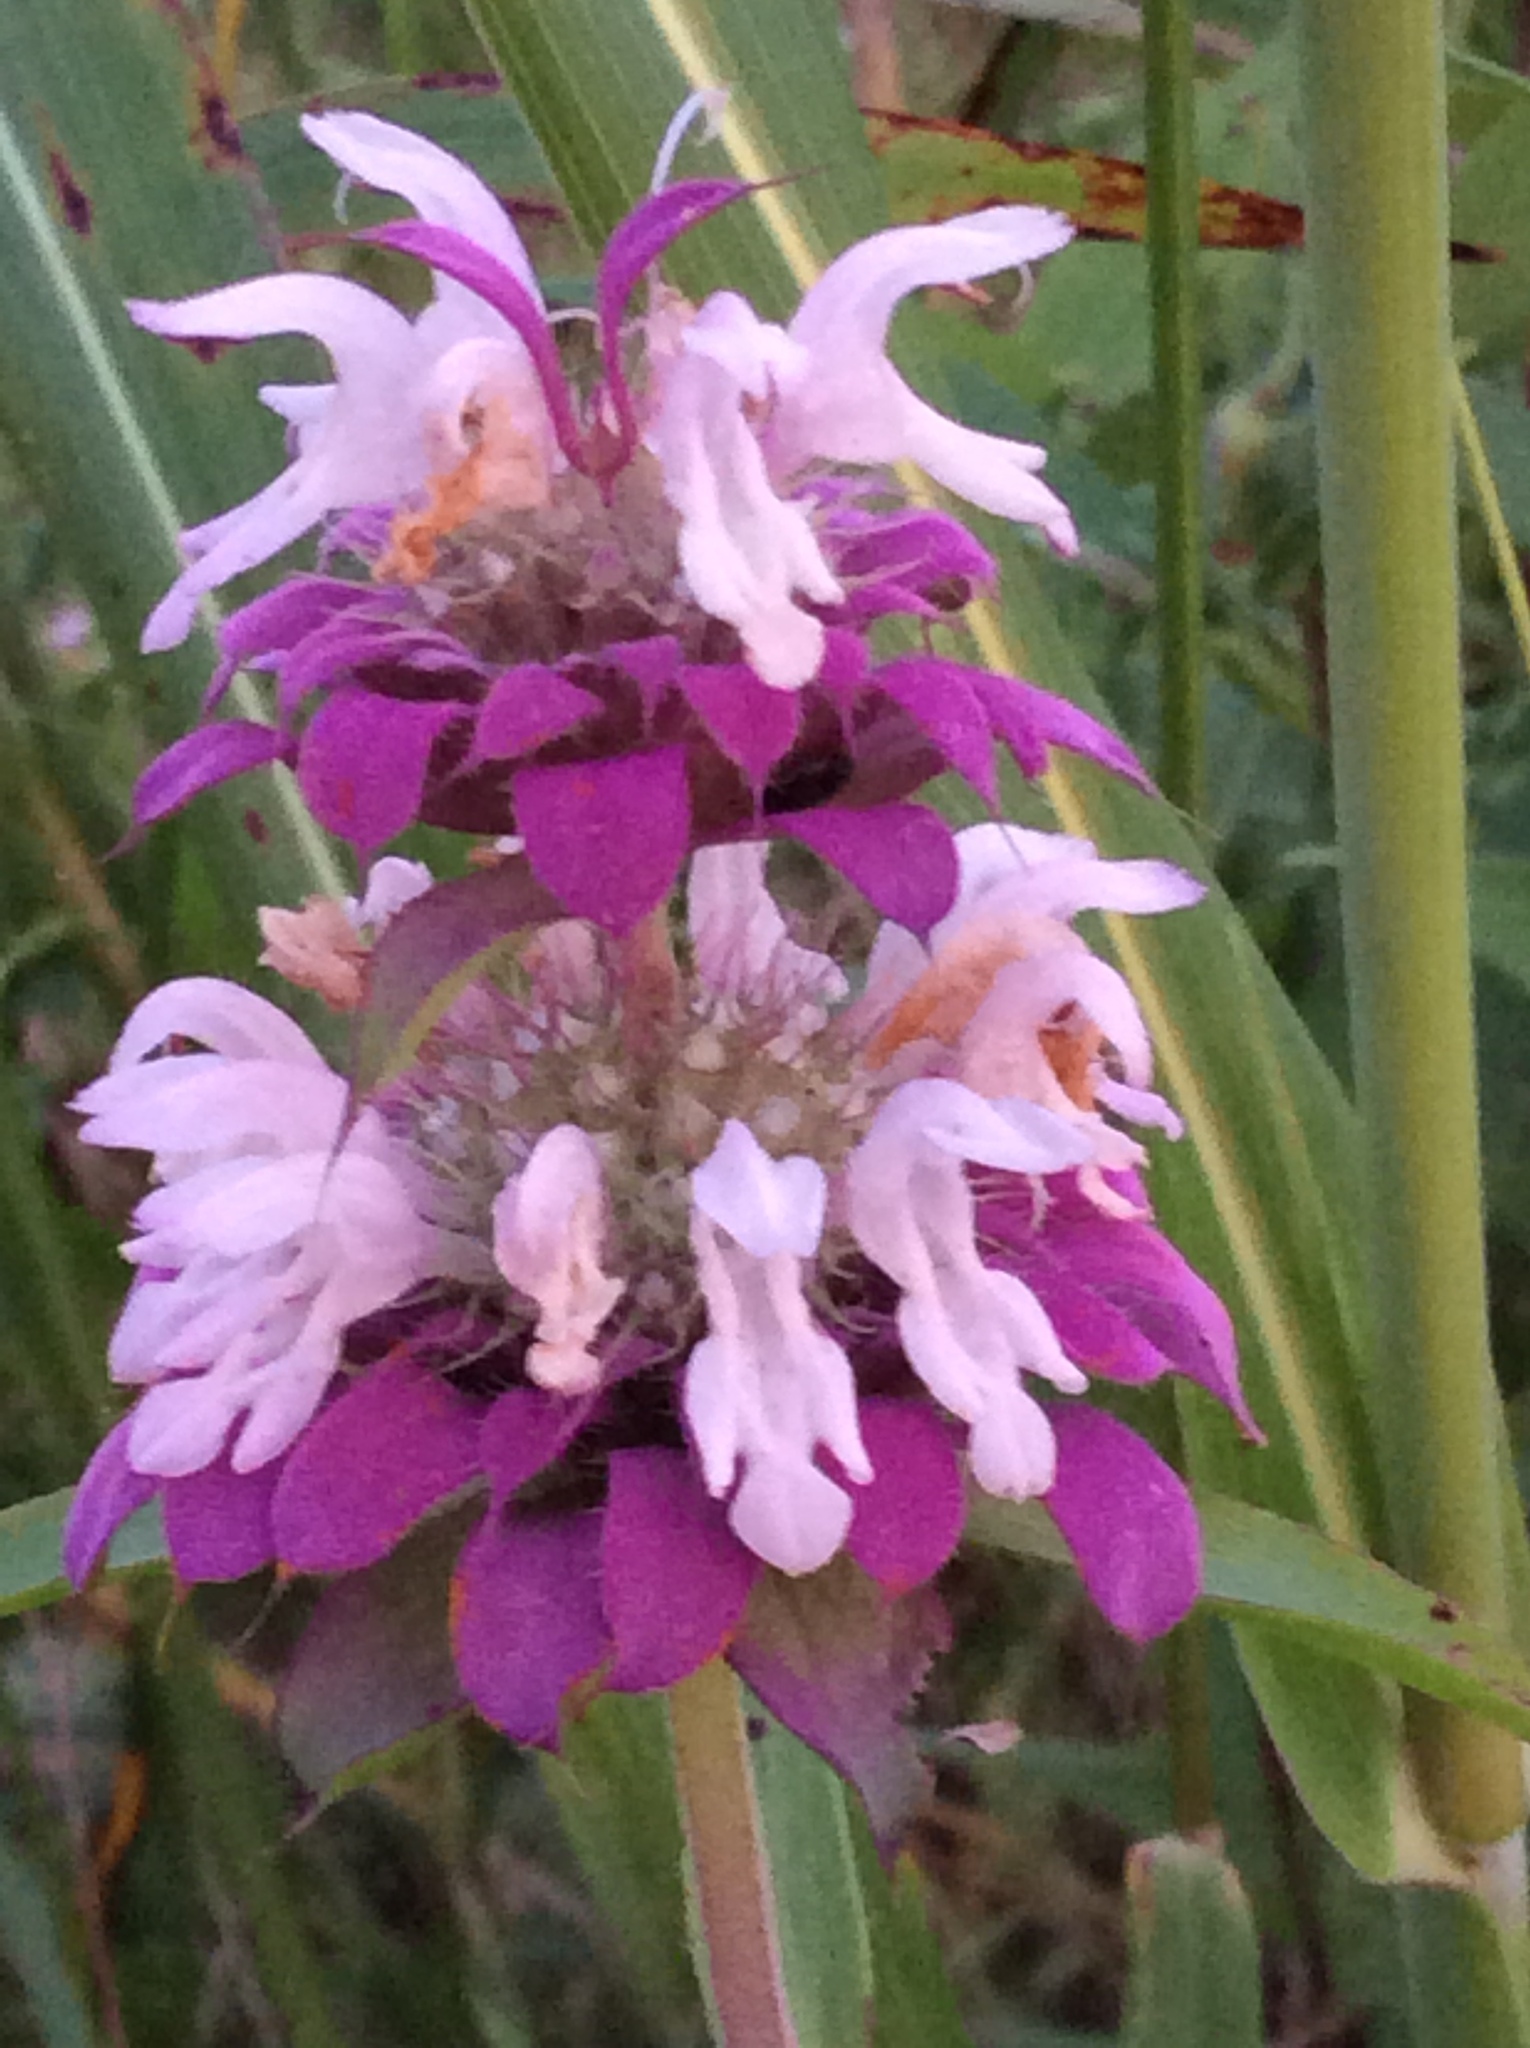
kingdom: Plantae
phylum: Tracheophyta
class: Magnoliopsida
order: Lamiales
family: Lamiaceae
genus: Monarda
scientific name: Monarda citriodora
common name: Lemon beebalm
